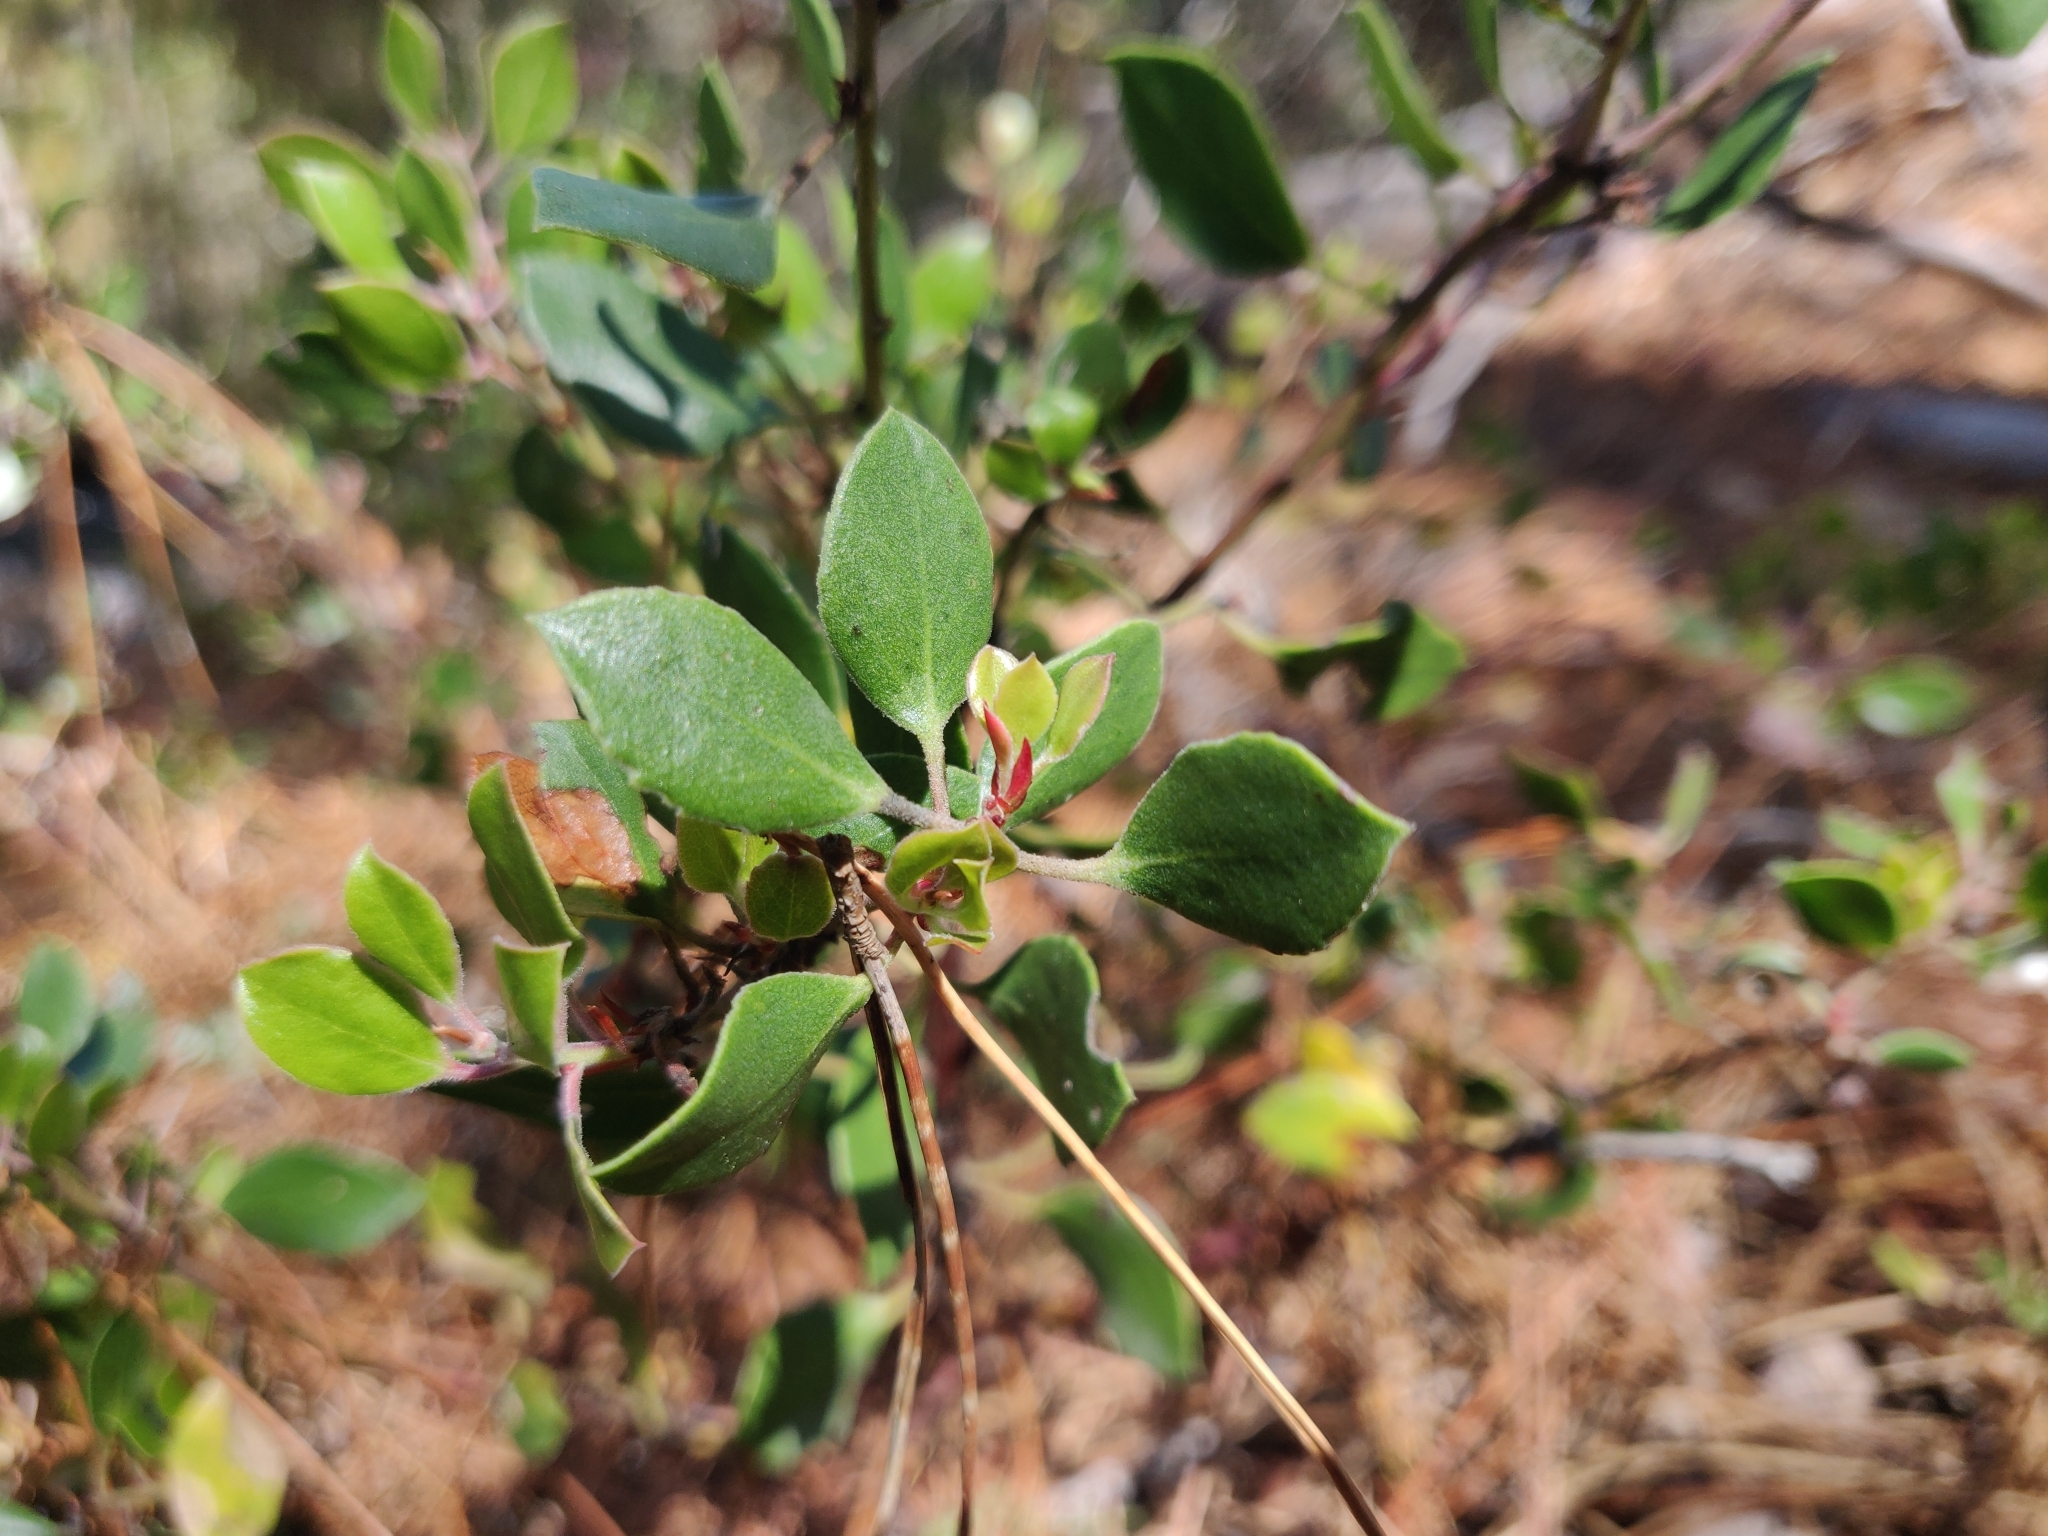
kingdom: Plantae
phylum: Tracheophyta
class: Magnoliopsida
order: Ericales
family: Ericaceae
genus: Arctostaphylos
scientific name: Arctostaphylos hookeri
